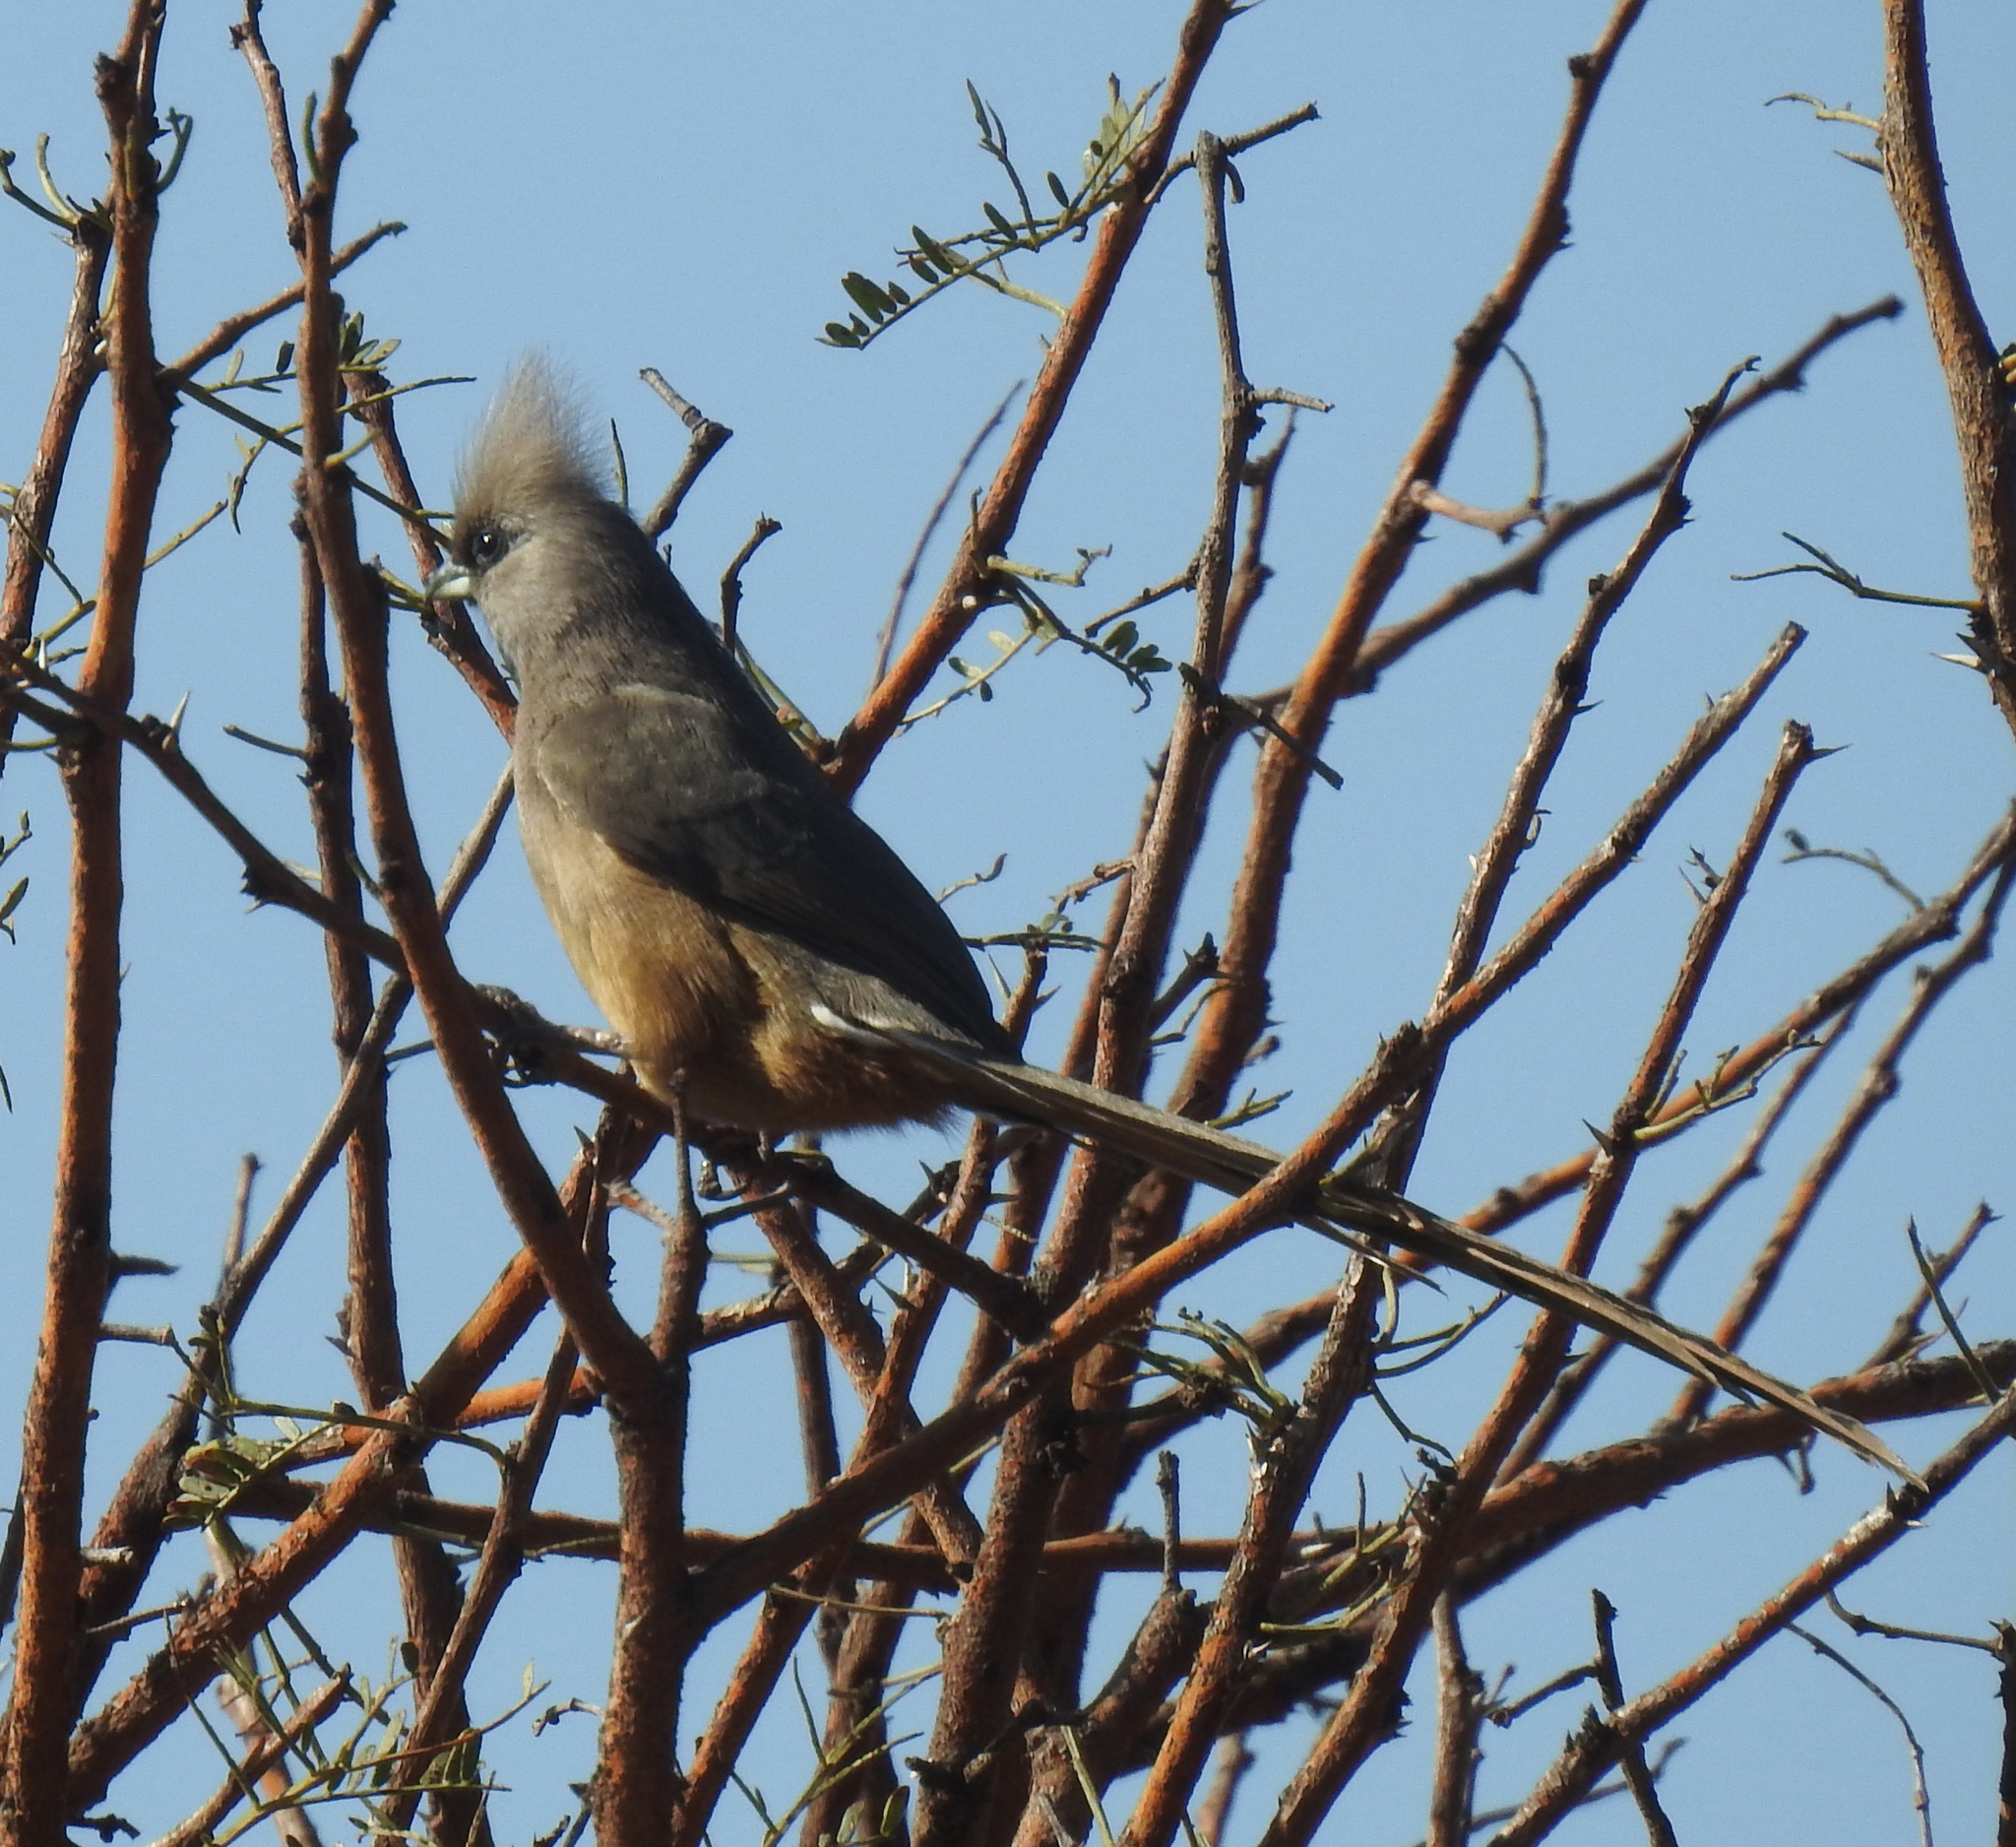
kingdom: Animalia
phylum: Chordata
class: Aves
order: Coliiformes
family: Coliidae
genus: Colius
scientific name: Colius striatus
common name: Speckled mousebird
